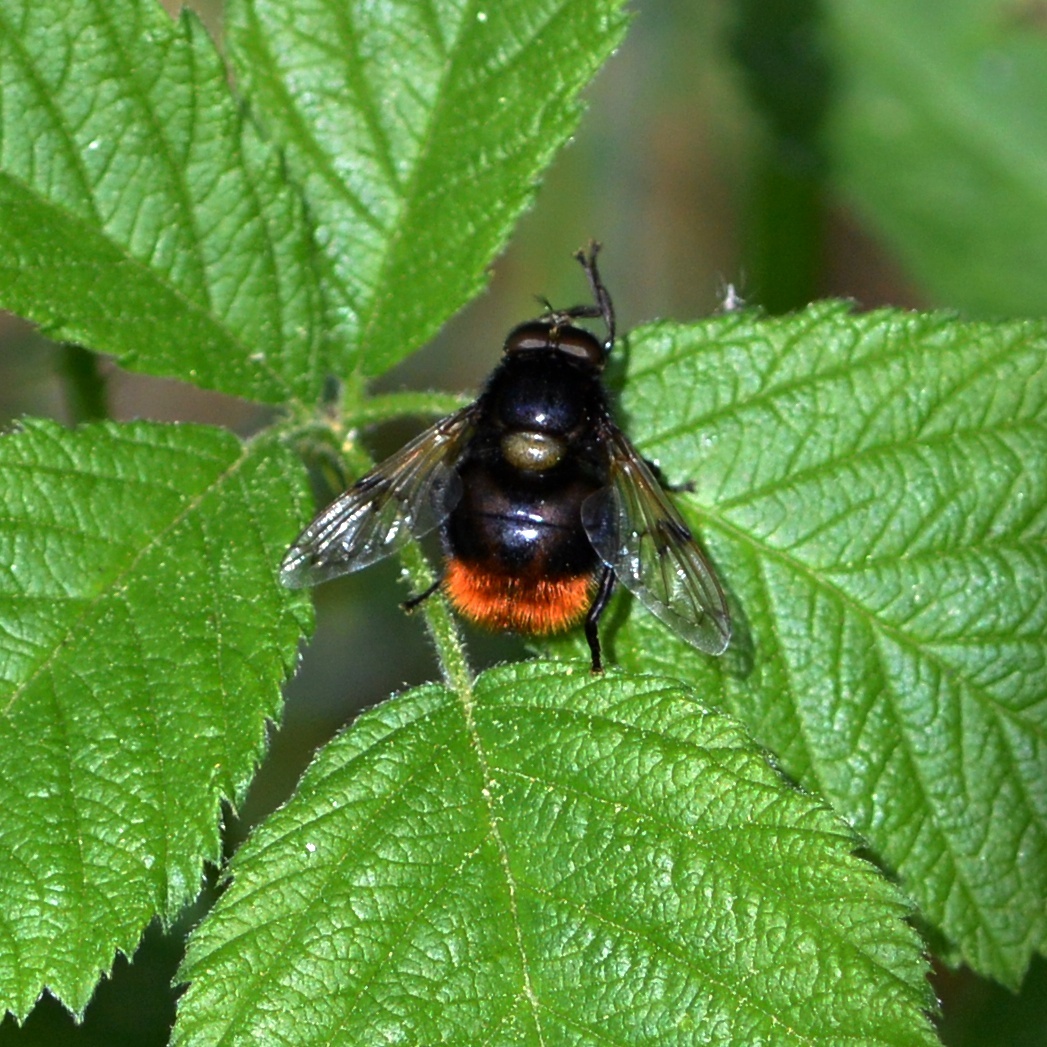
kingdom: Animalia
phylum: Arthropoda
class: Insecta
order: Diptera
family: Syrphidae
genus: Volucella
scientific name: Volucella bombylans
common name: Bumble bee hover fly
